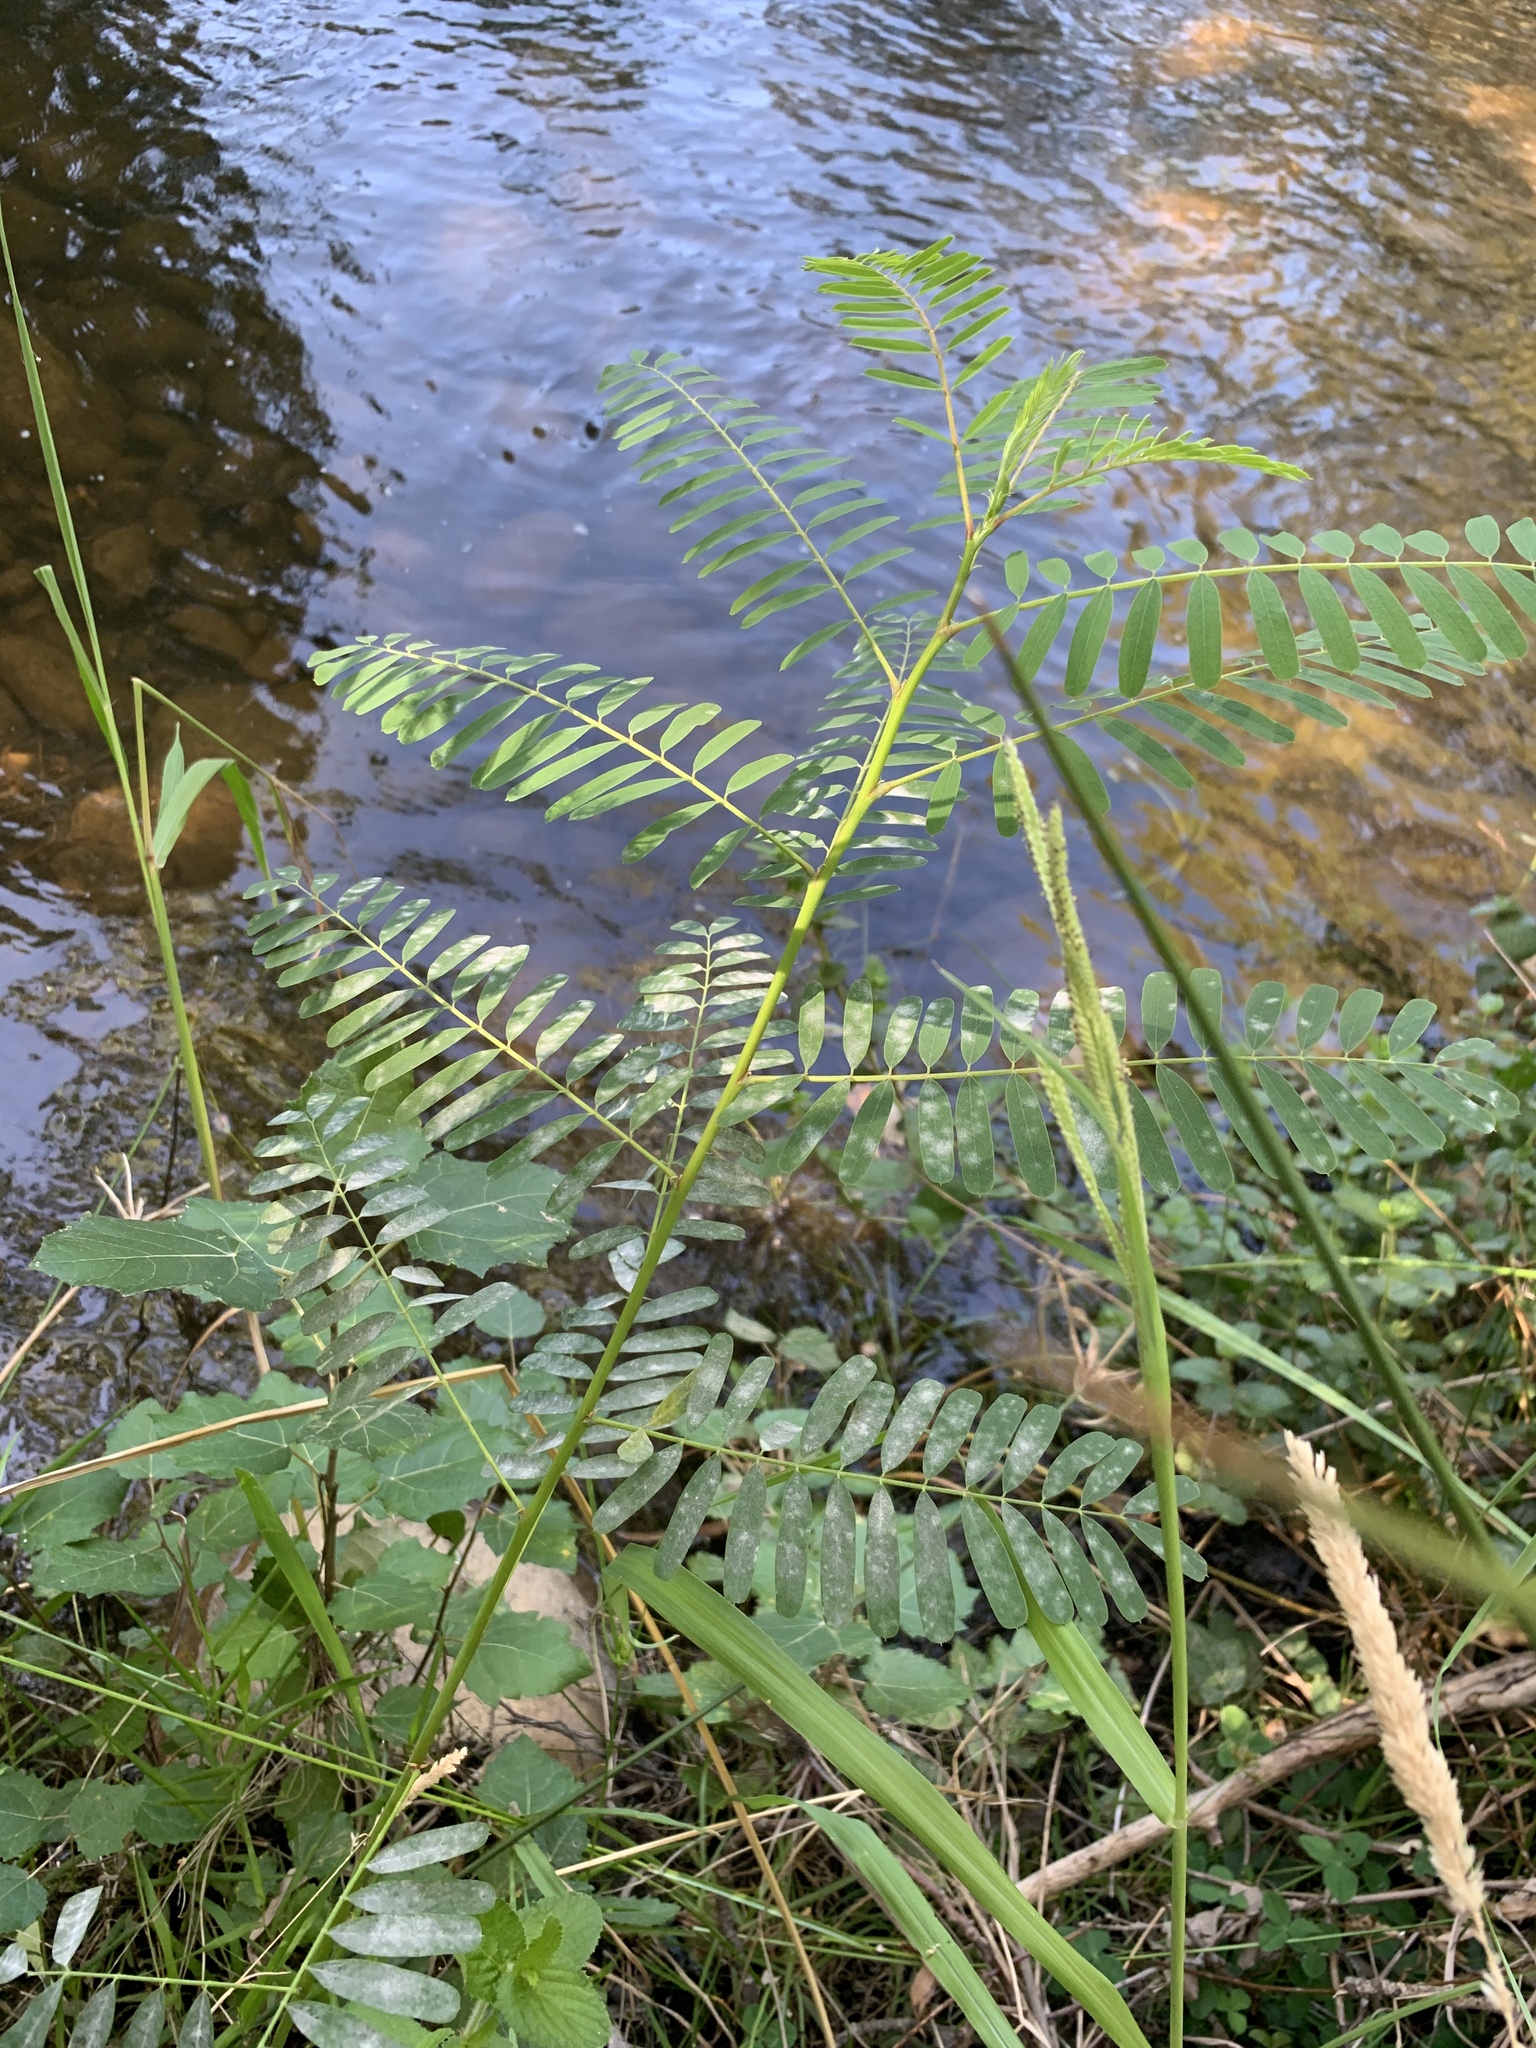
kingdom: Plantae
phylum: Tracheophyta
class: Magnoliopsida
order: Fabales
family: Fabaceae
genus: Sesbania
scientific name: Sesbania punicea
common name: Rattlebox
